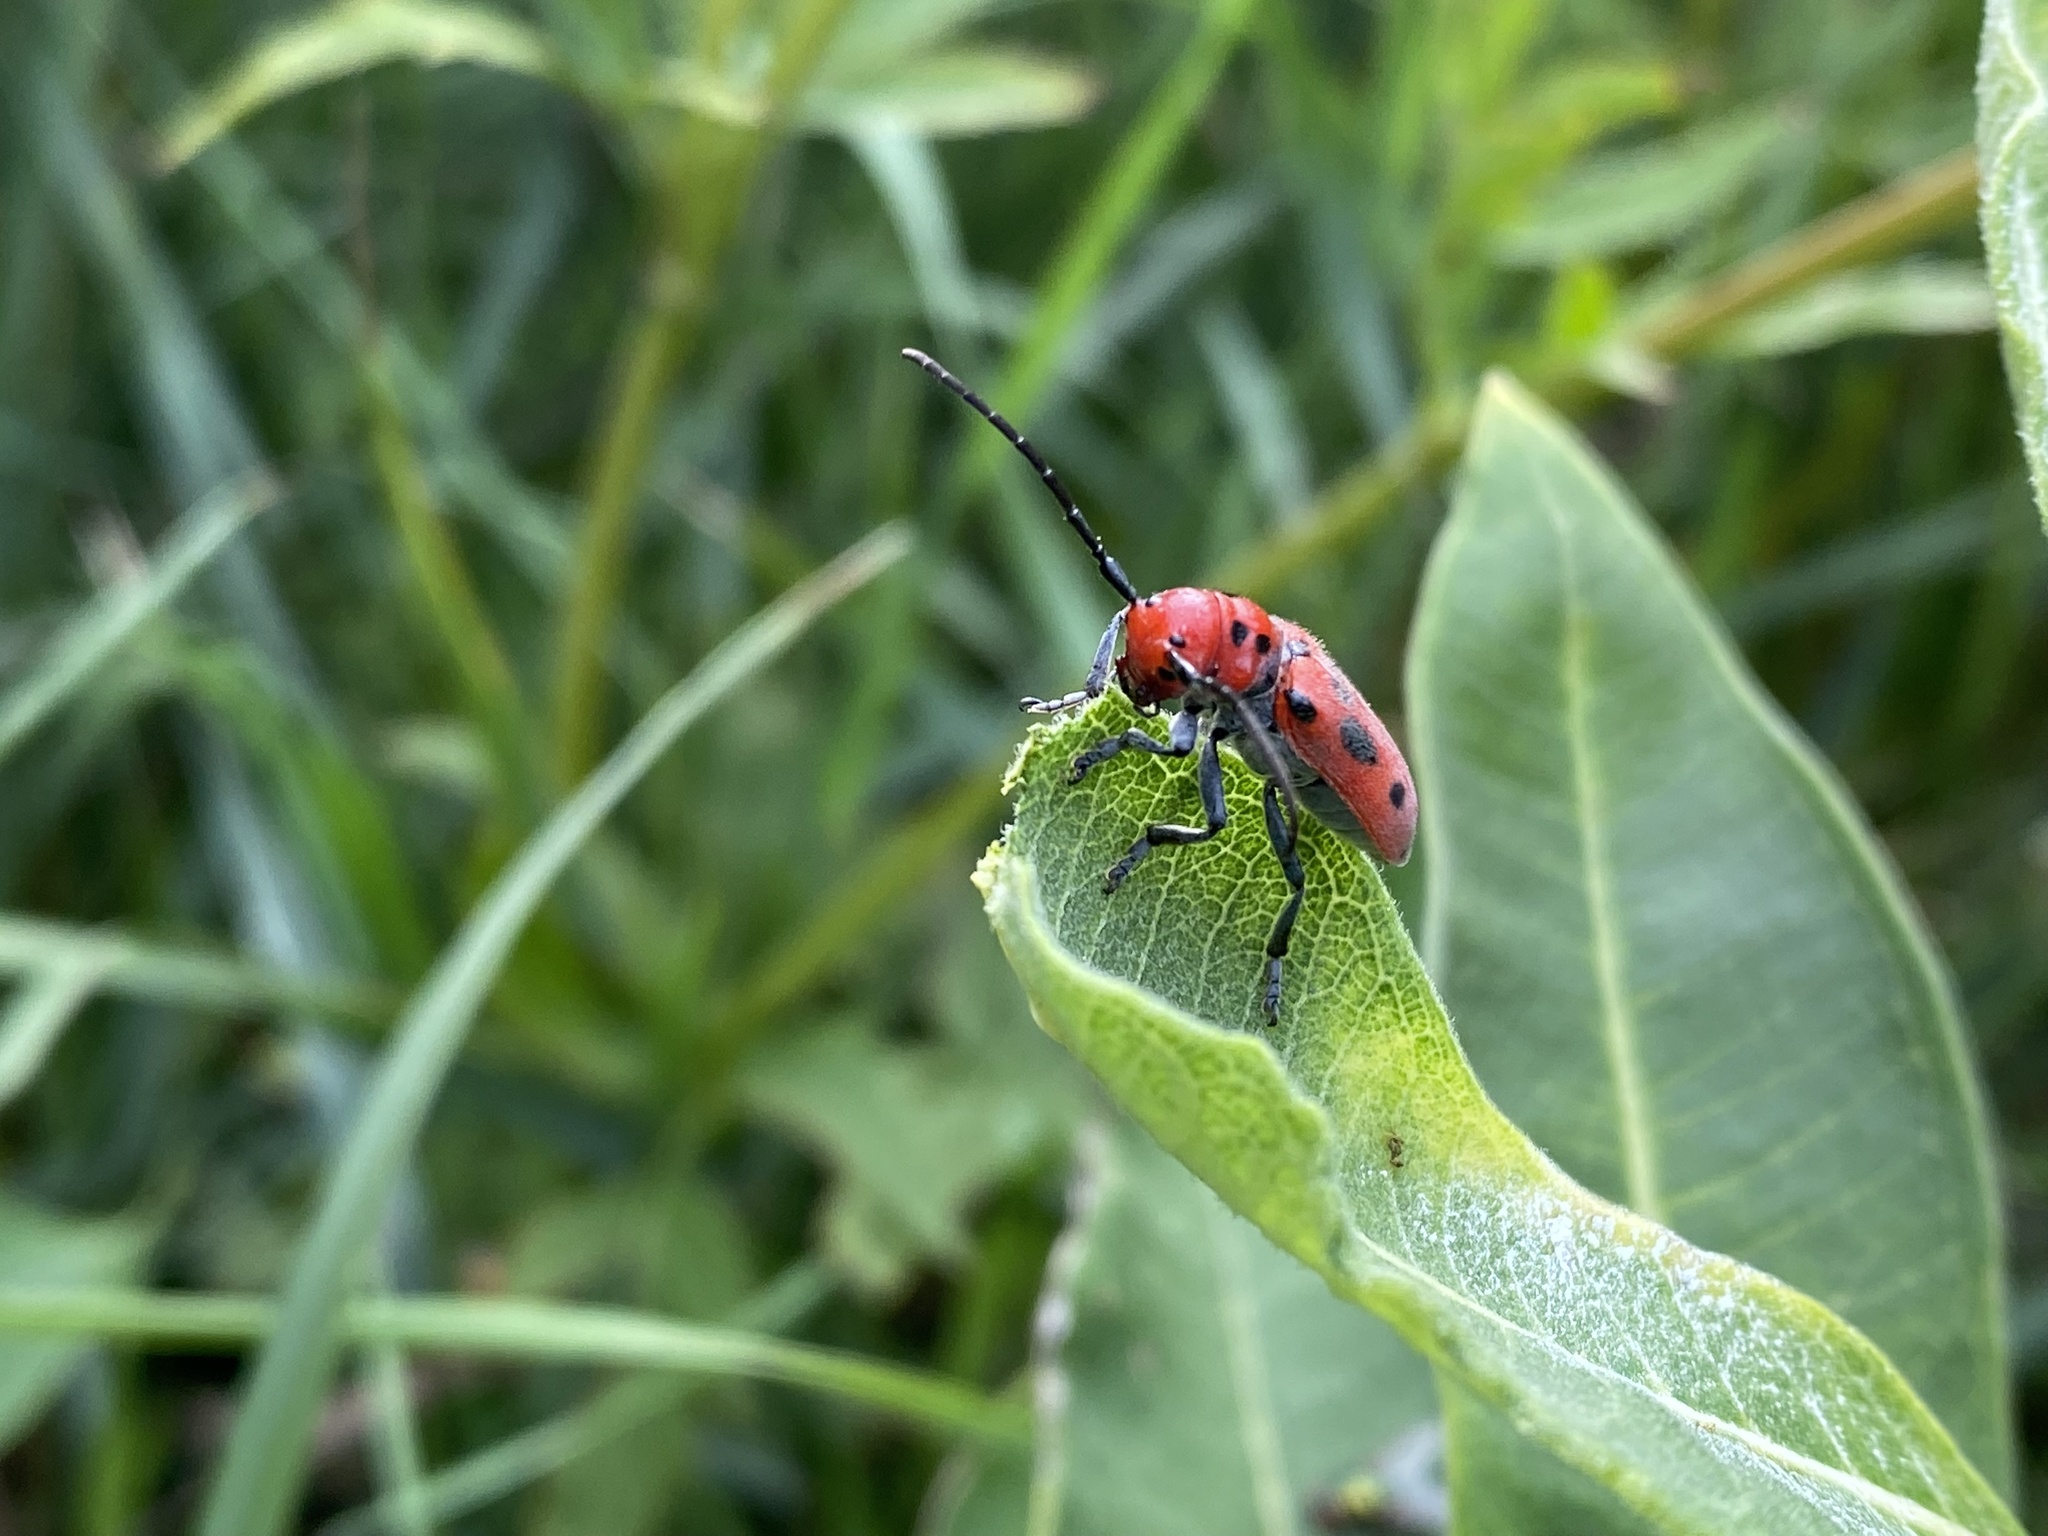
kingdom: Animalia
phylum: Arthropoda
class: Insecta
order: Coleoptera
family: Cerambycidae
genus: Tetraopes
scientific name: Tetraopes tetrophthalmus
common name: Red milkweed beetle
